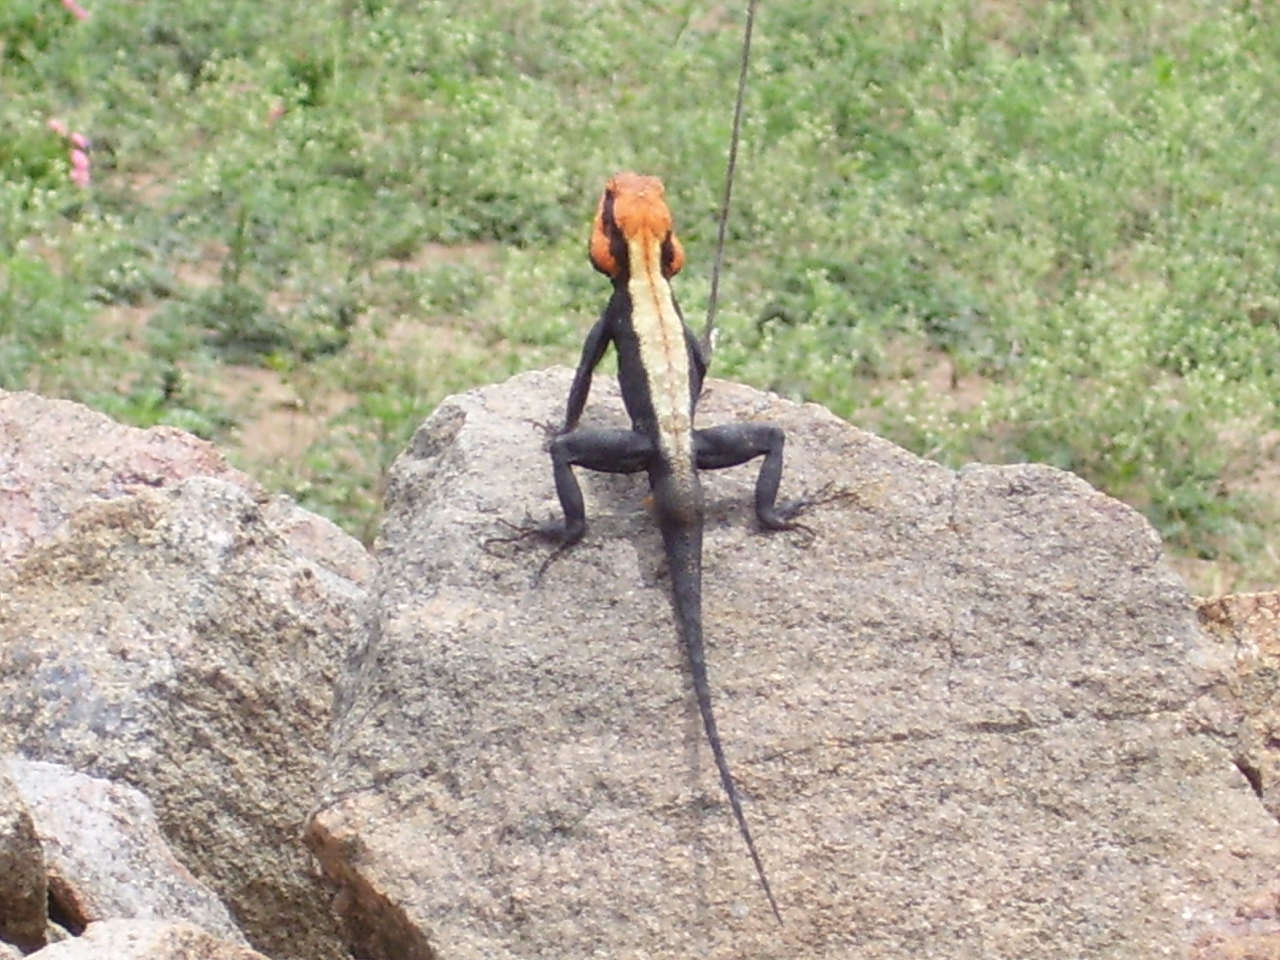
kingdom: Animalia
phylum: Chordata
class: Squamata
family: Agamidae
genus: Psammophilus
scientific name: Psammophilus dorsalis
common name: South indian rock agama
